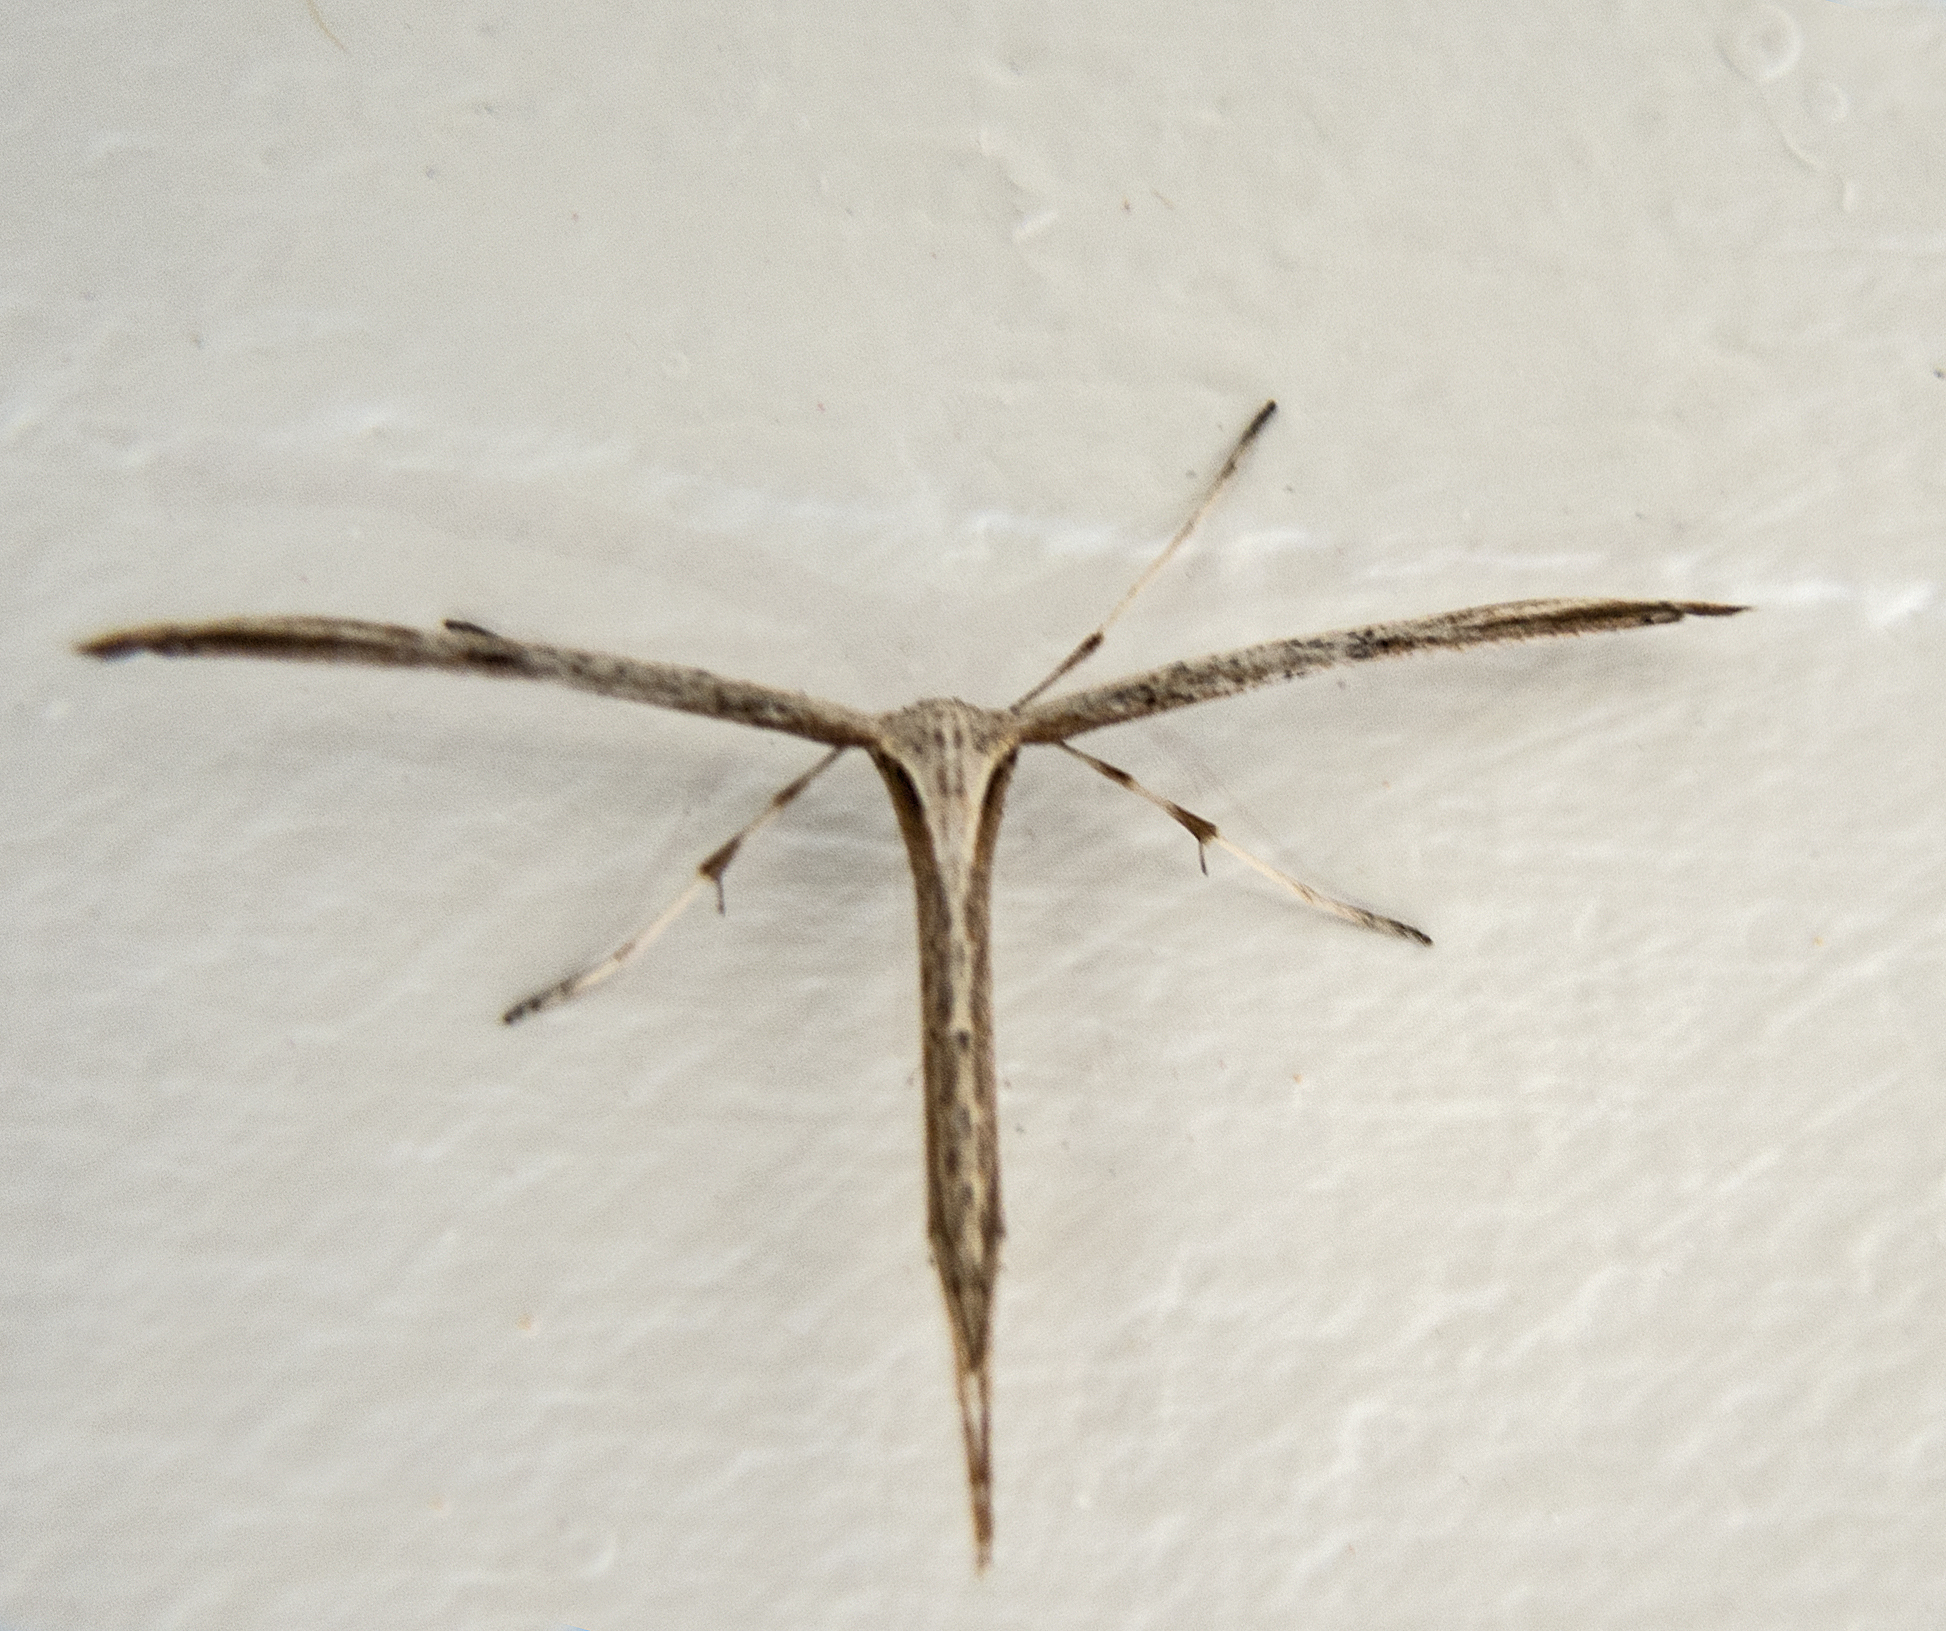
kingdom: Animalia
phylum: Arthropoda
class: Insecta
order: Lepidoptera
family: Pterophoridae
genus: Emmelina
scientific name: Emmelina monodactyla
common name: Common plume
